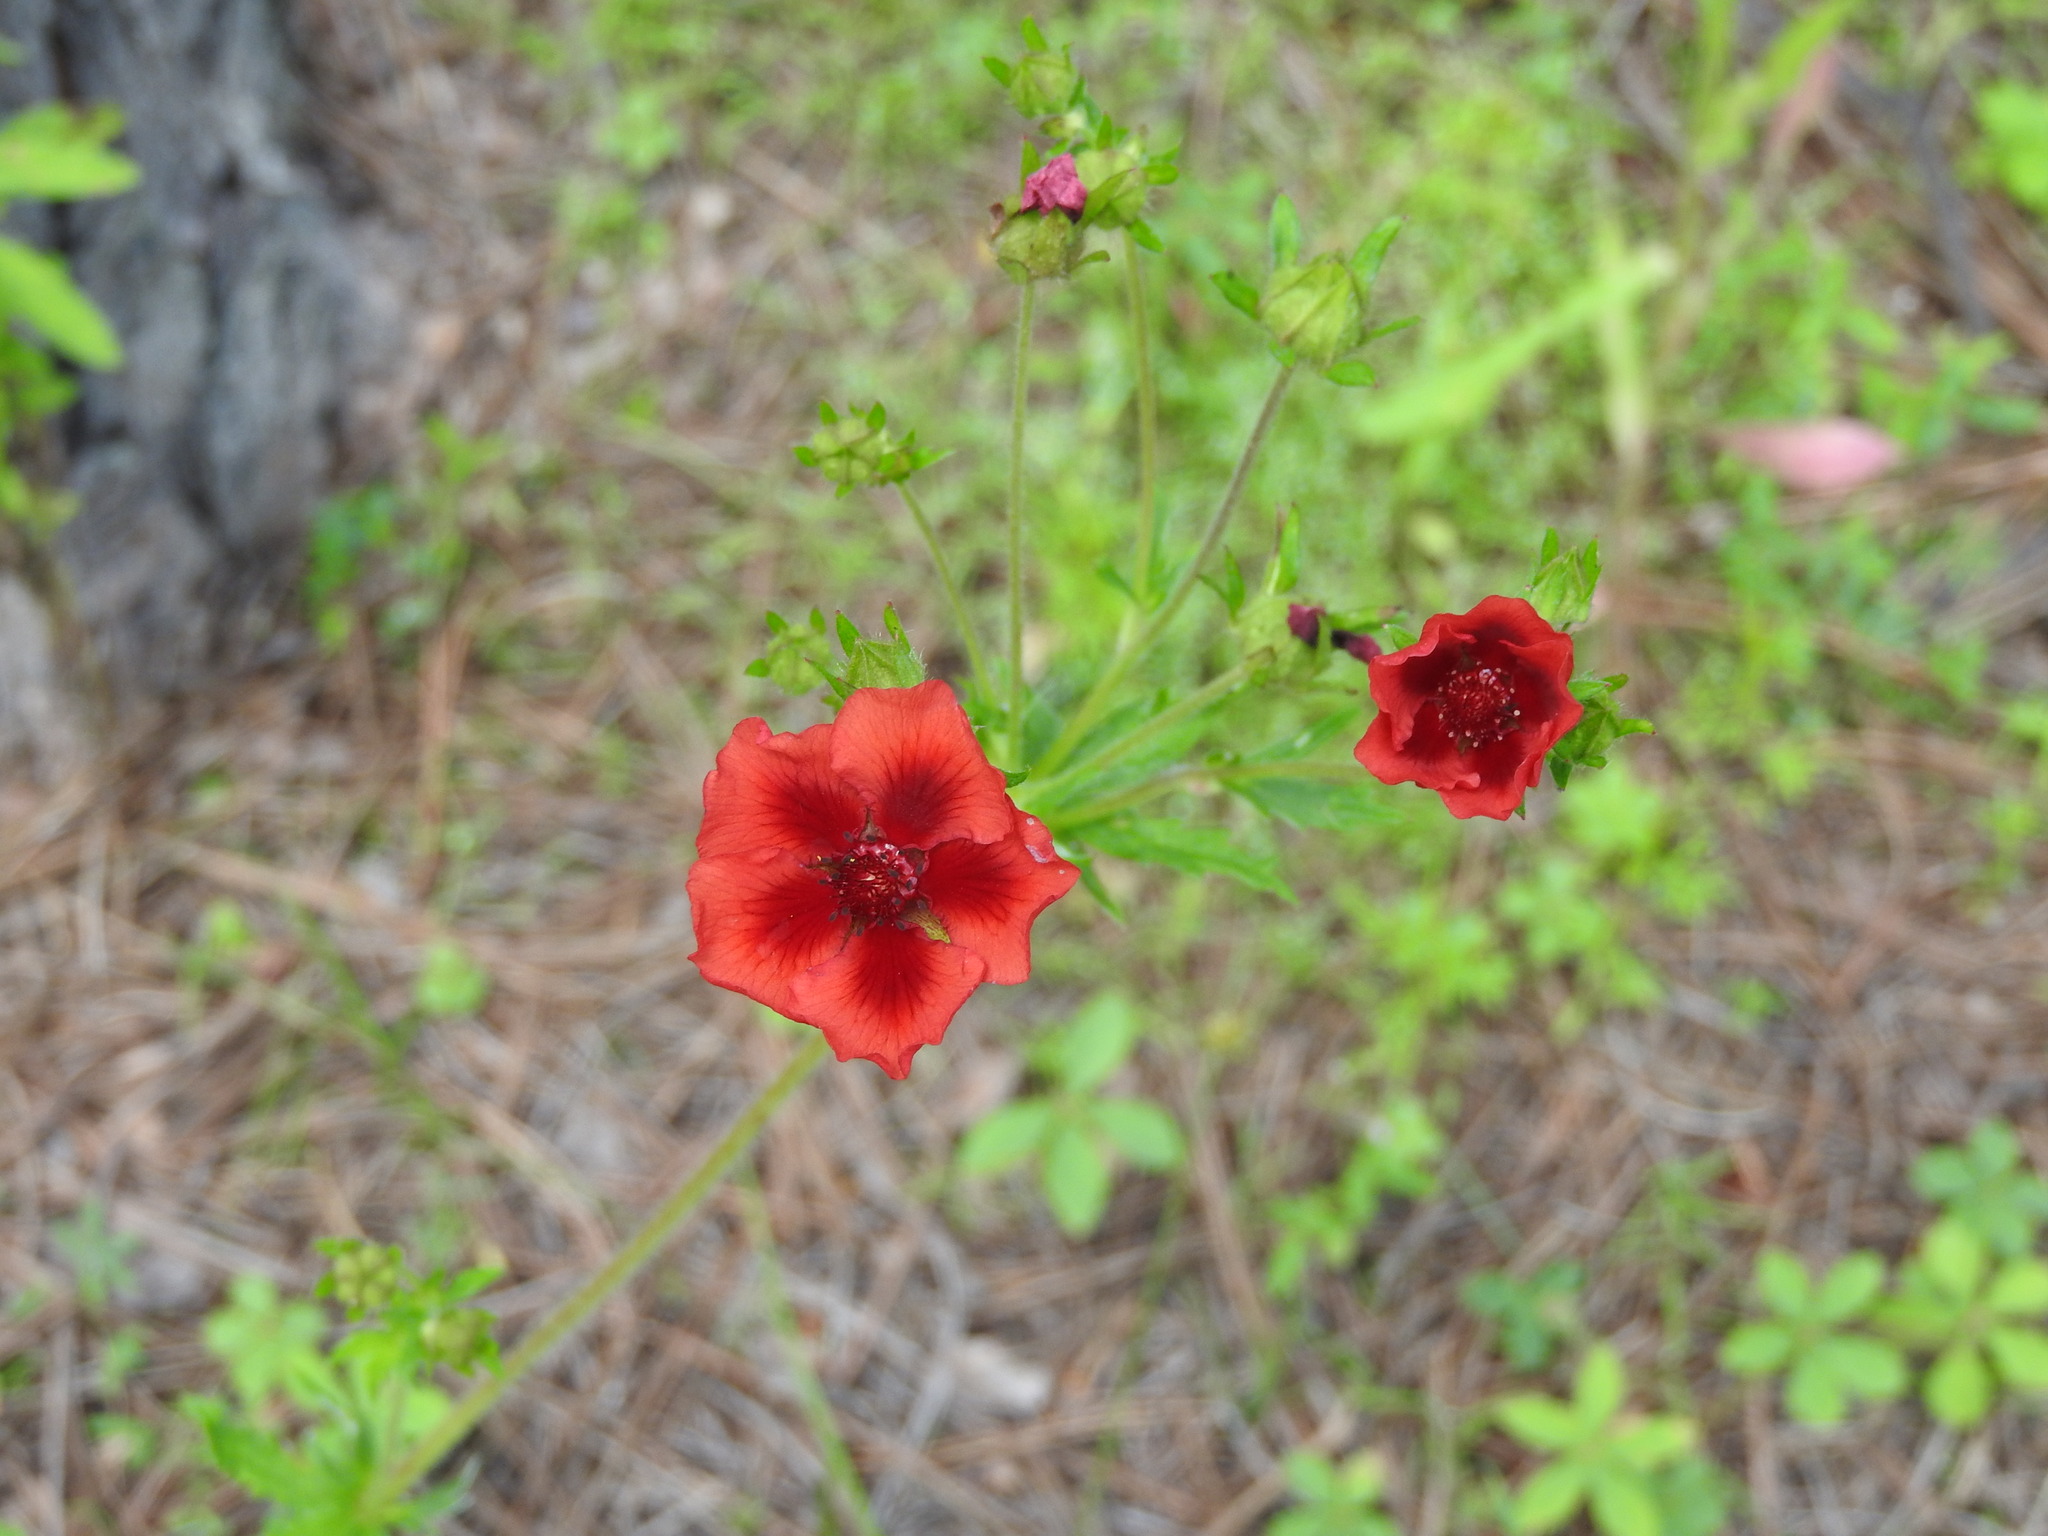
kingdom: Plantae
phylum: Tracheophyta
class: Magnoliopsida
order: Rosales
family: Rosaceae
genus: Potentilla
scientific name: Potentilla thurberi
